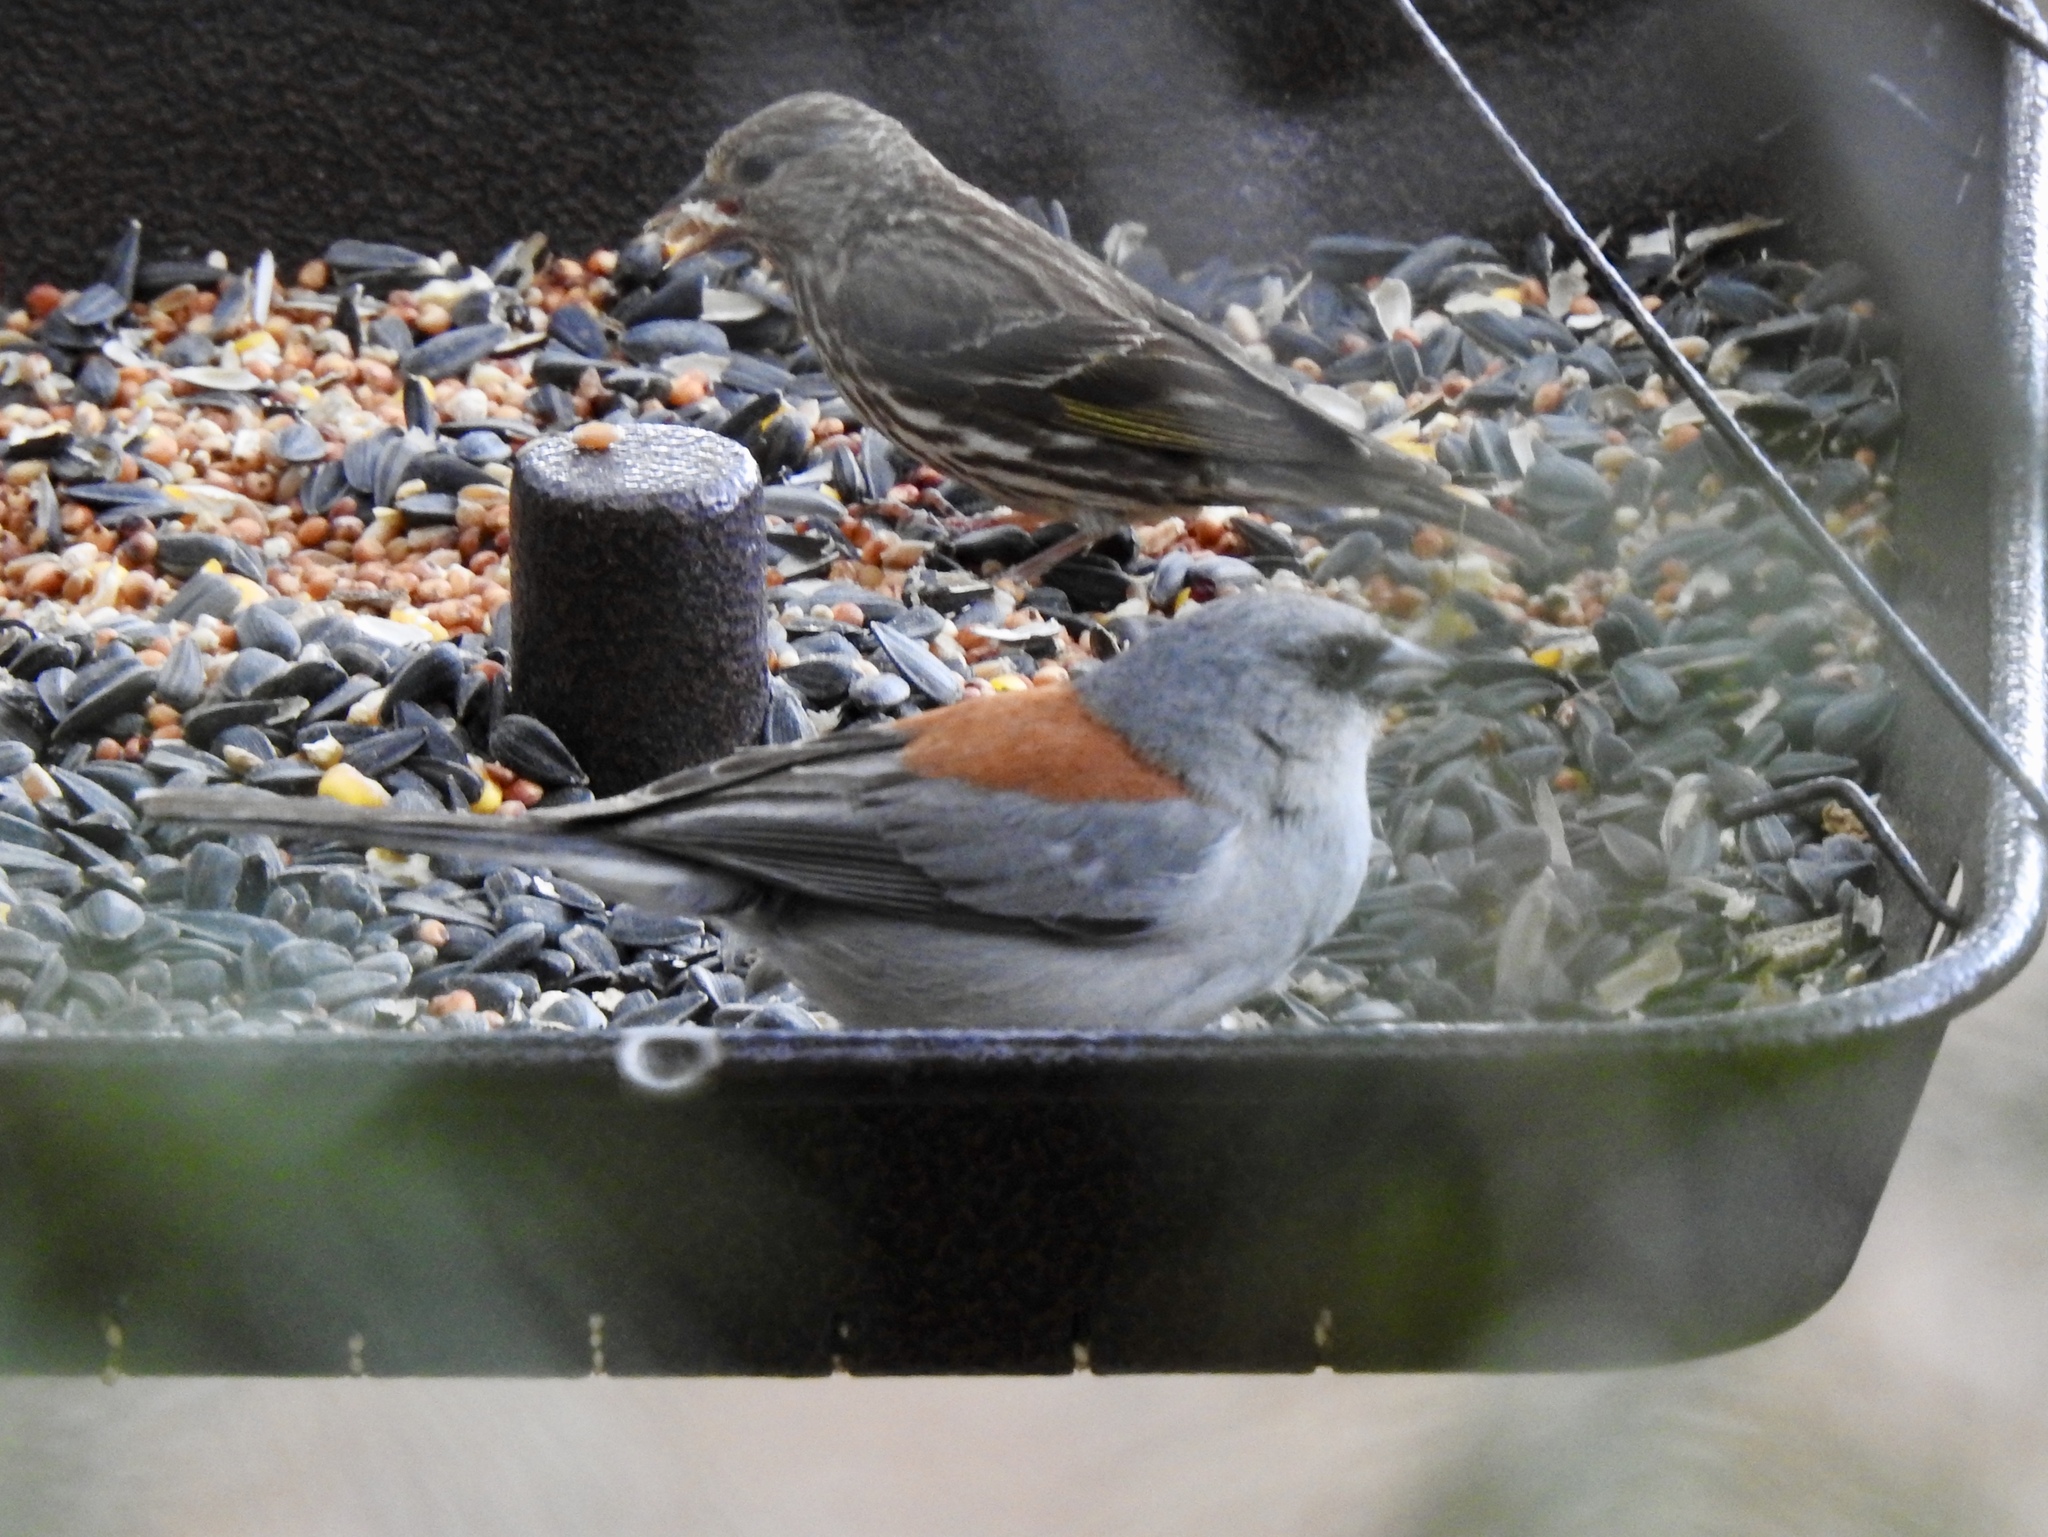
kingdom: Animalia
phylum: Chordata
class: Aves
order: Passeriformes
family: Passerellidae
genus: Junco
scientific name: Junco hyemalis
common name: Dark-eyed junco
